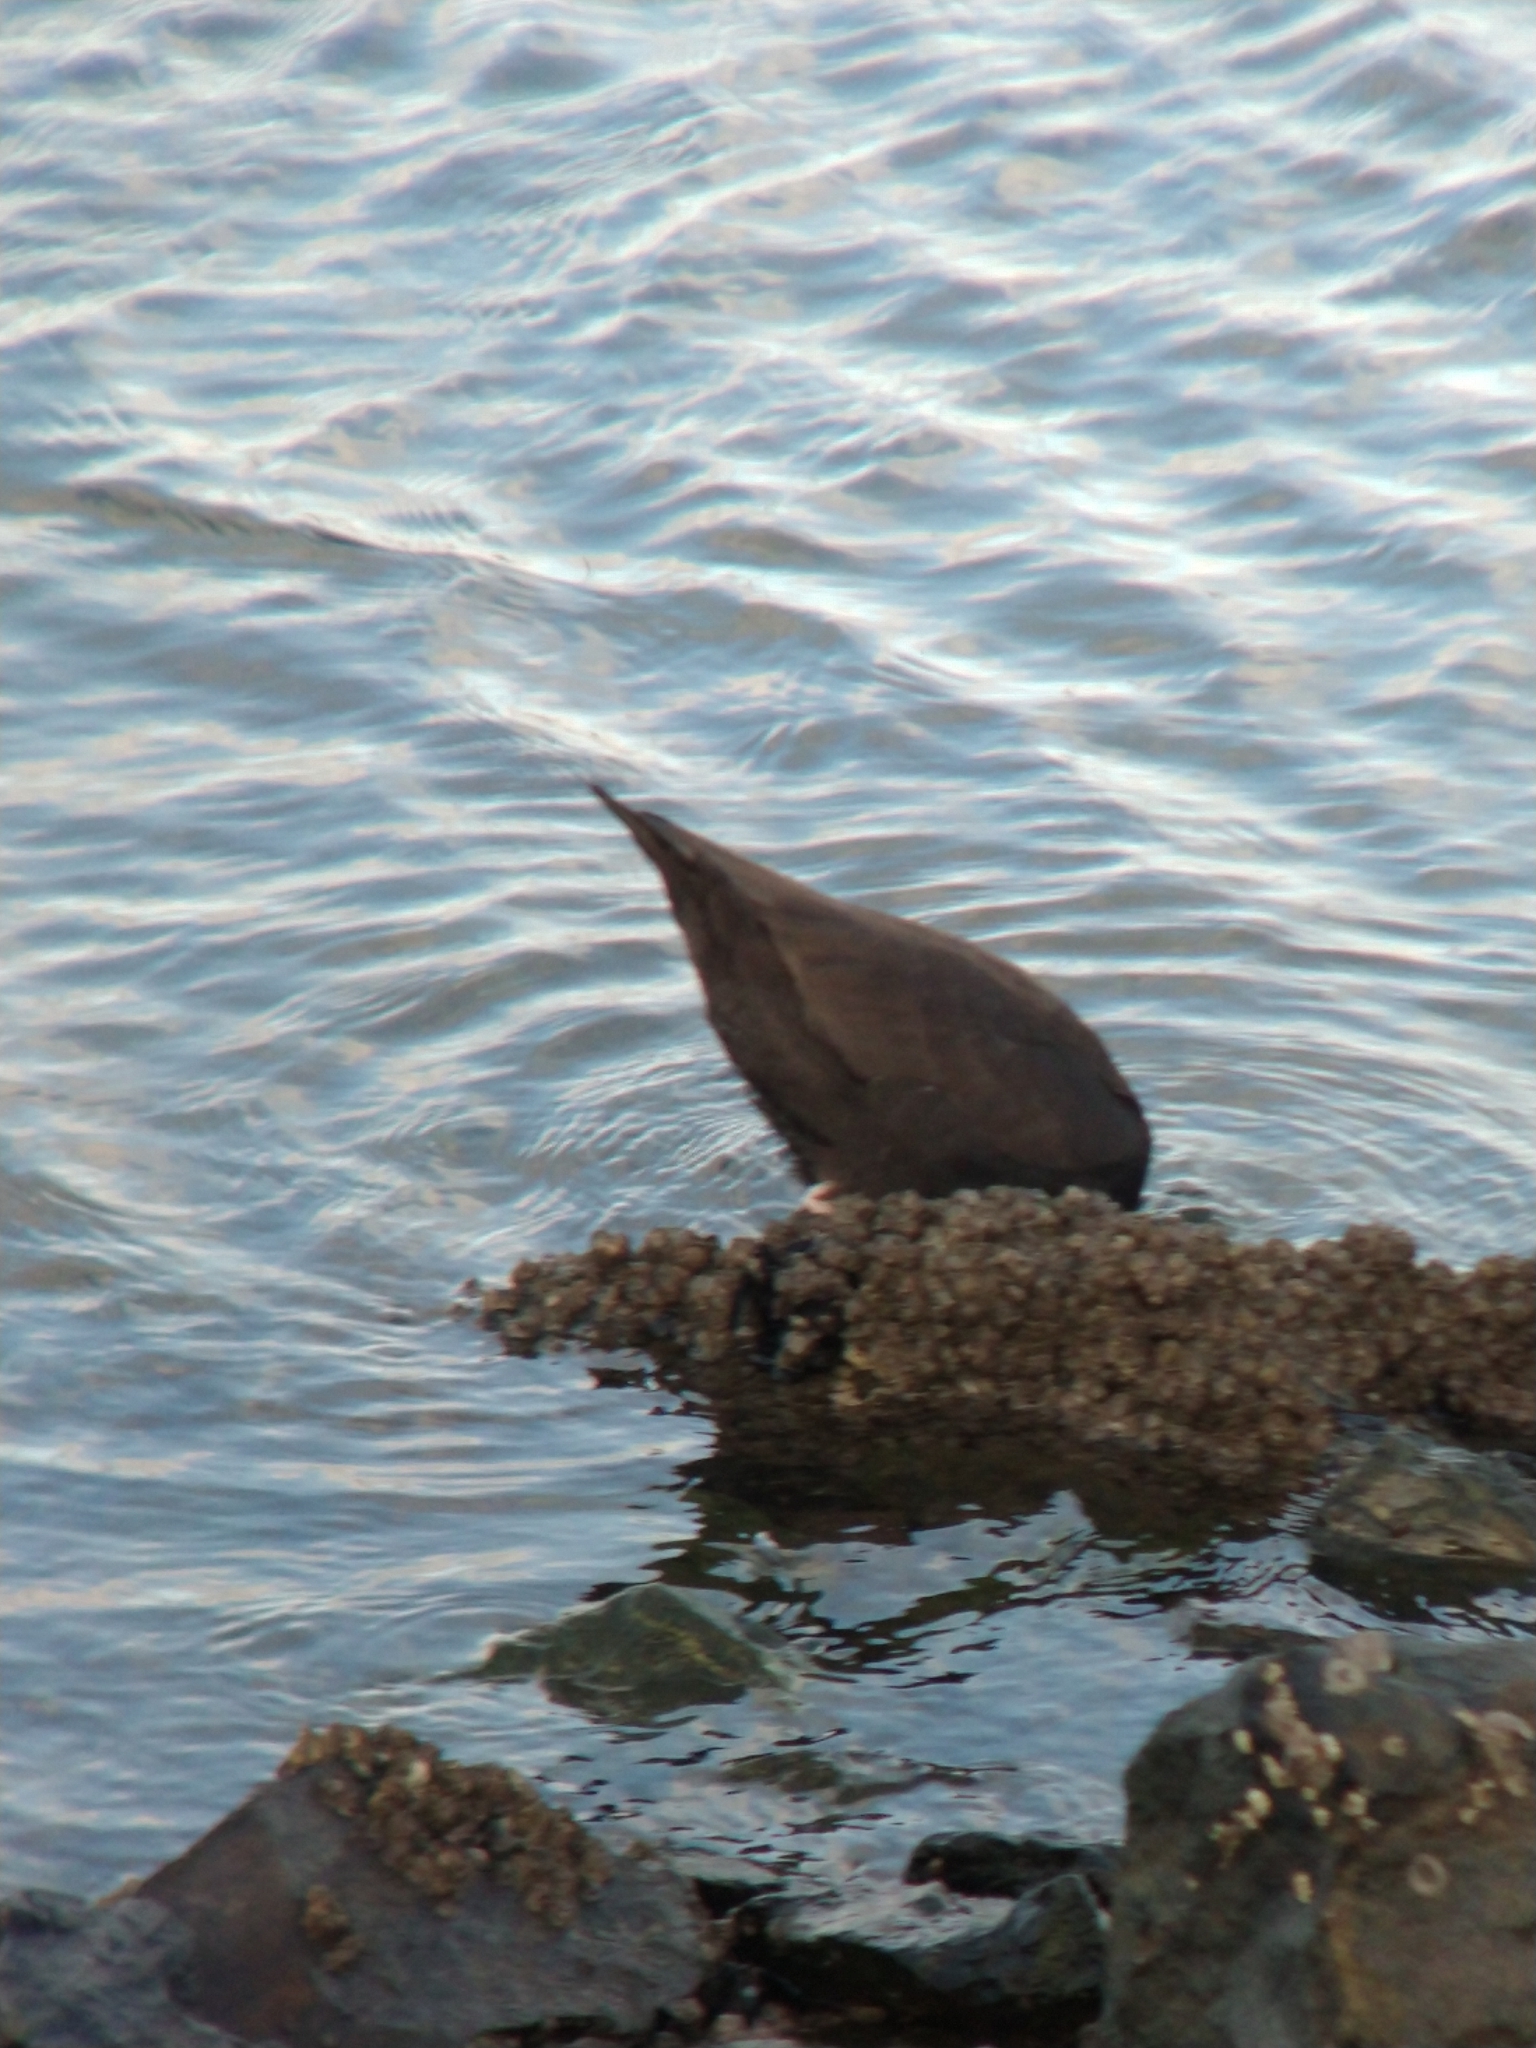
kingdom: Animalia
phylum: Chordata
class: Aves
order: Charadriiformes
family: Haematopodidae
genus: Haematopus
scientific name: Haematopus ater
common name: Blackish oystercatcher
